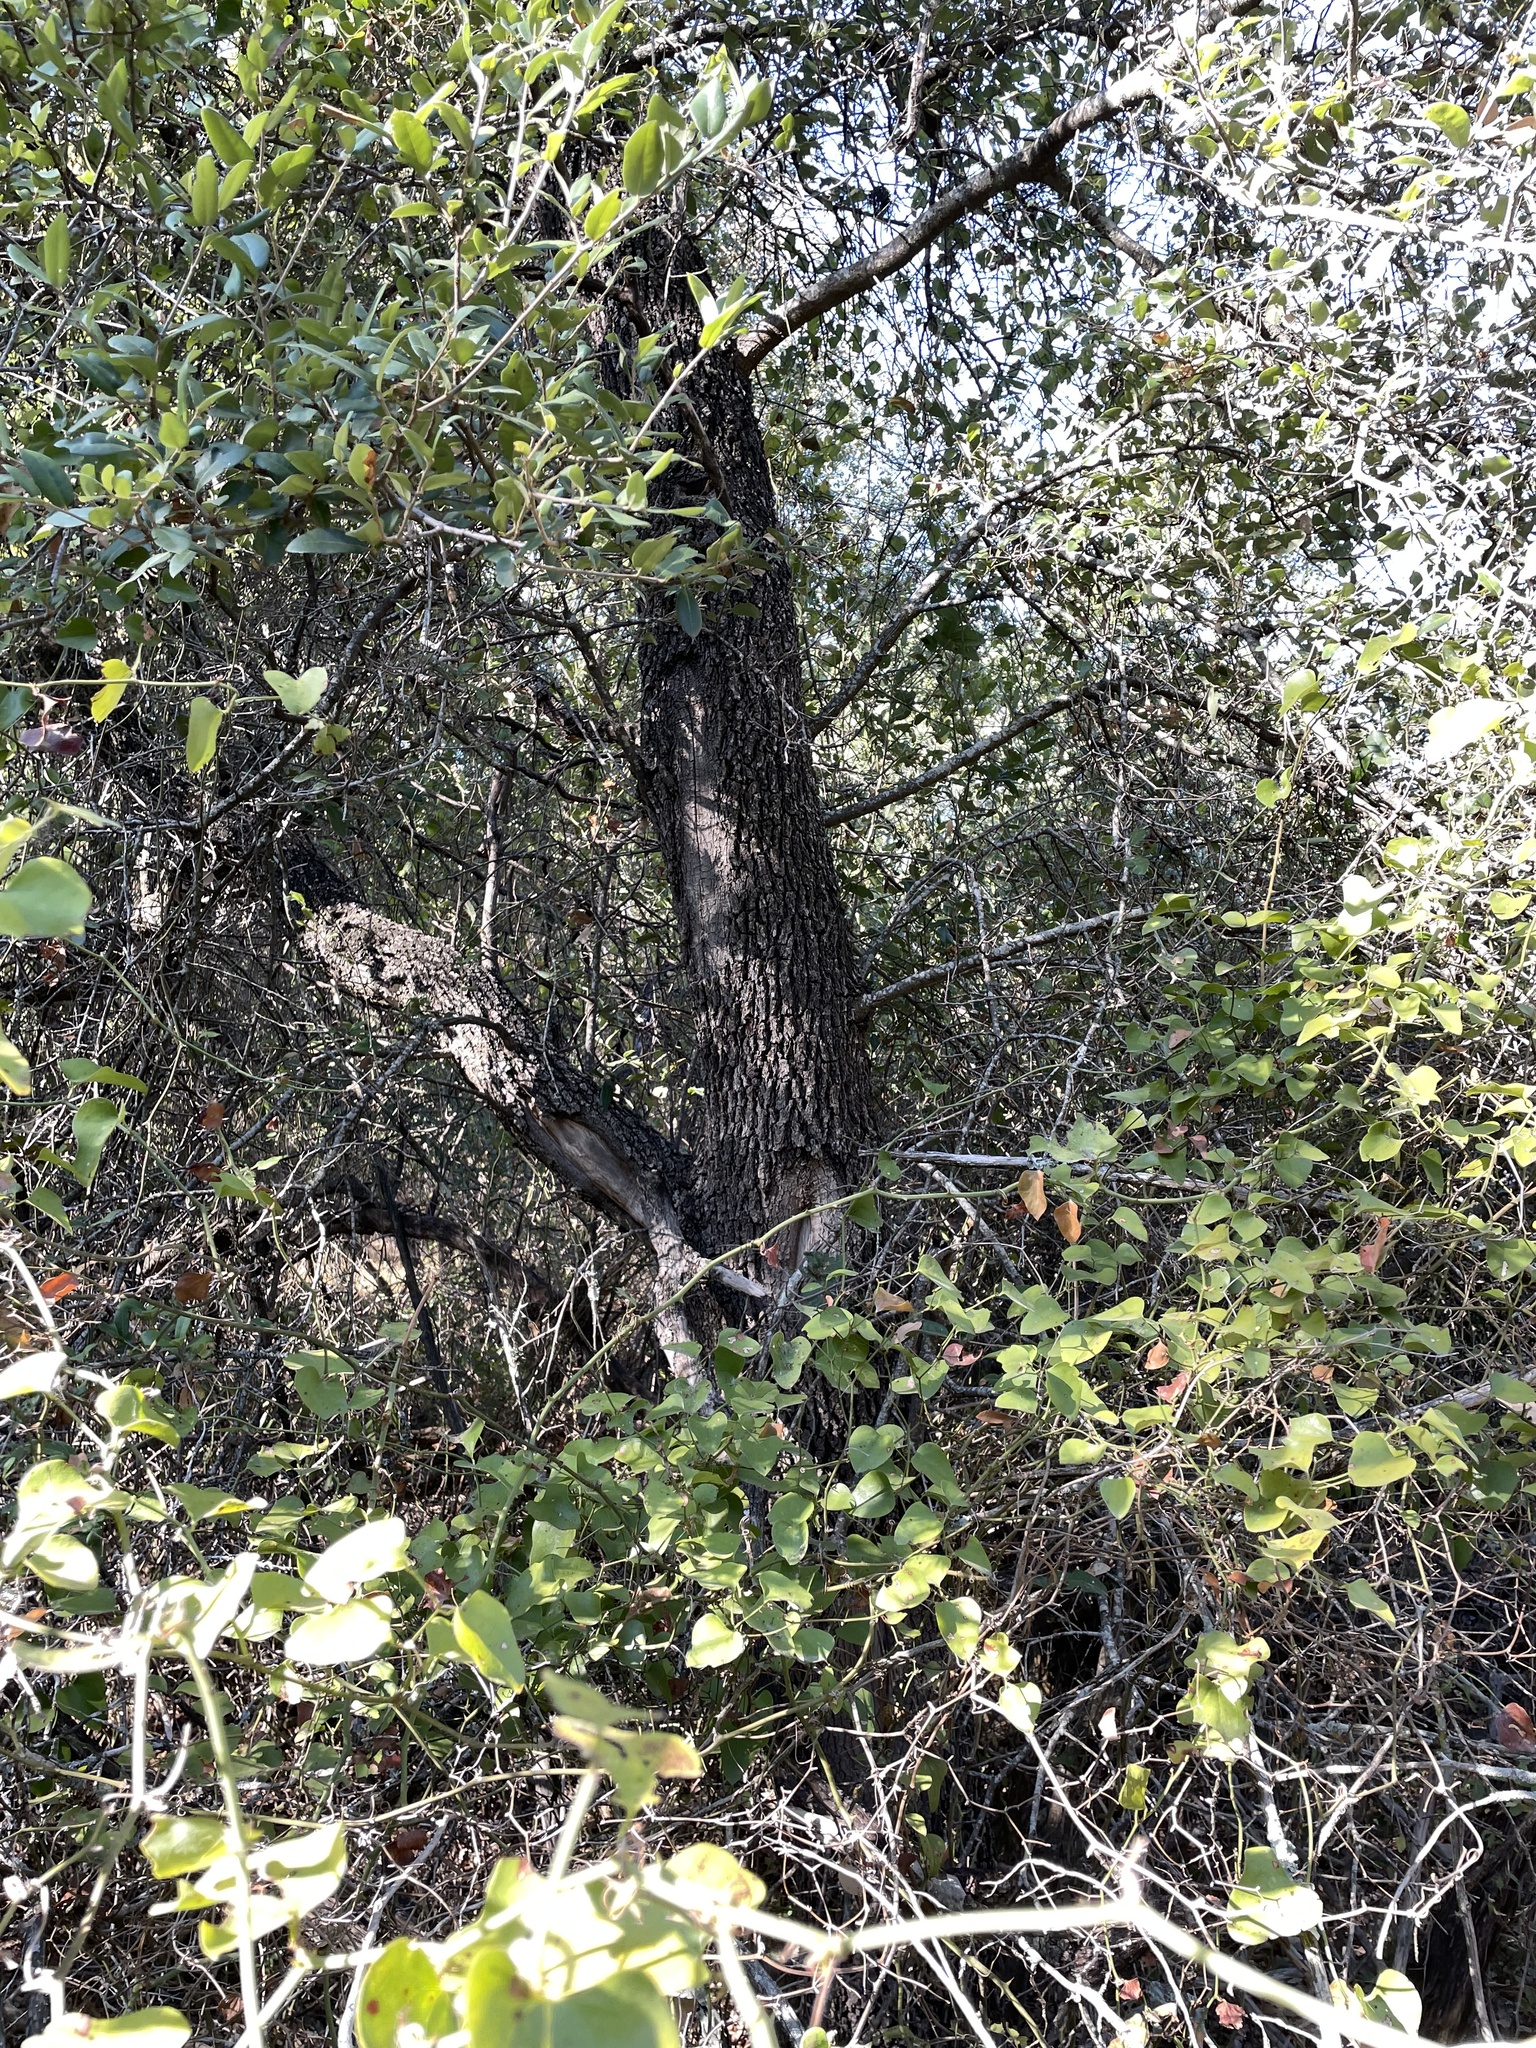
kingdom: Plantae
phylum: Tracheophyta
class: Magnoliopsida
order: Fagales
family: Fagaceae
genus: Quercus
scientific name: Quercus fusiformis
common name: Texas live oak
